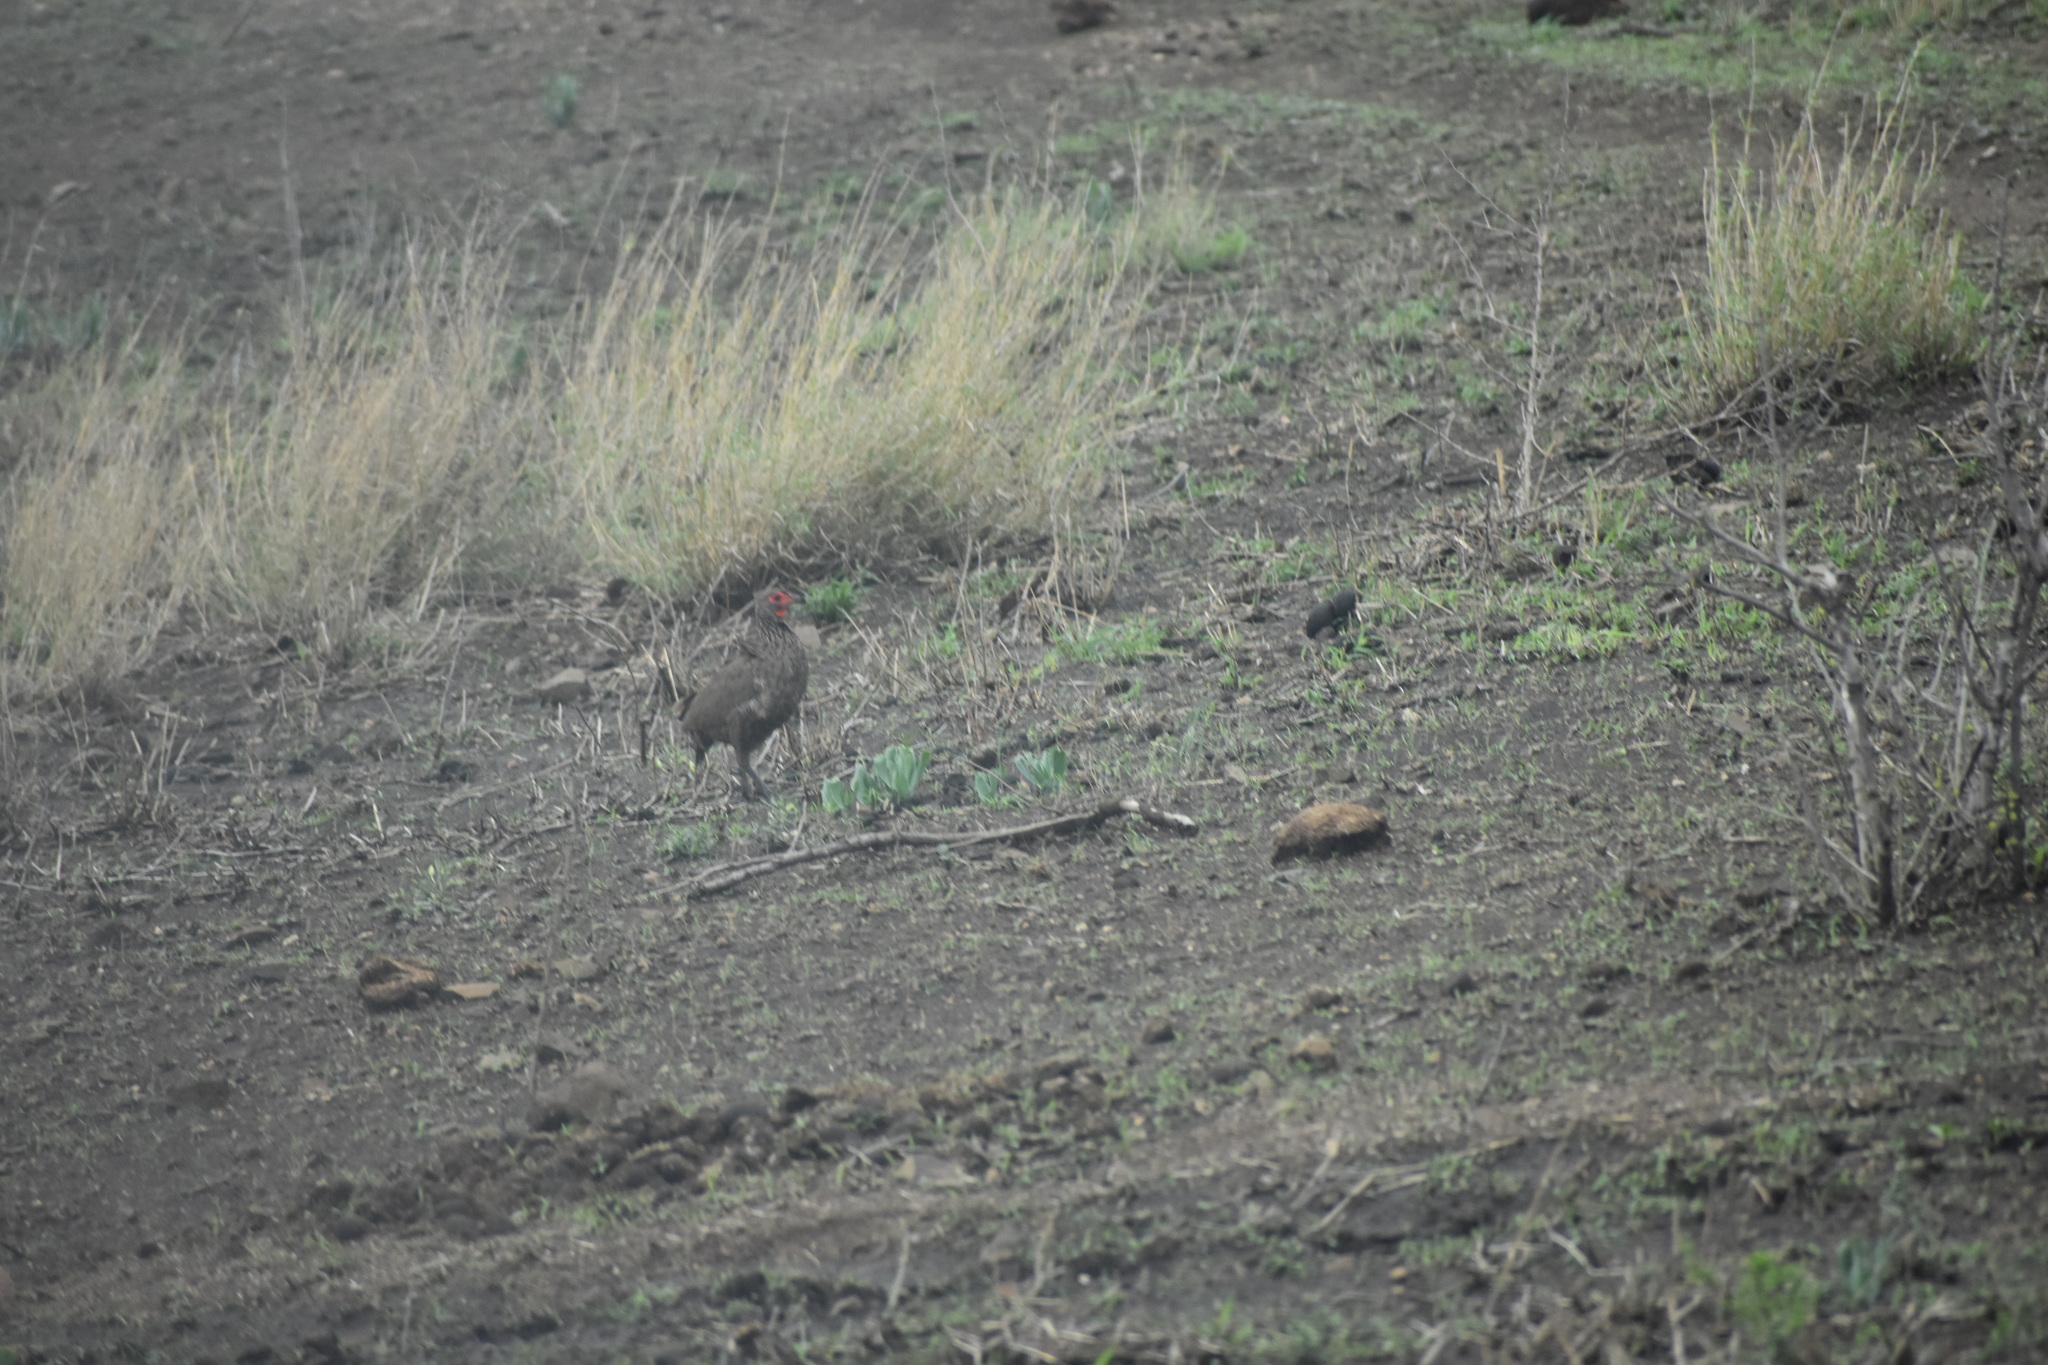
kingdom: Animalia
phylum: Chordata
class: Aves
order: Galliformes
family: Phasianidae
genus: Pternistis
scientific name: Pternistis swainsonii
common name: Swainson's spurfowl
